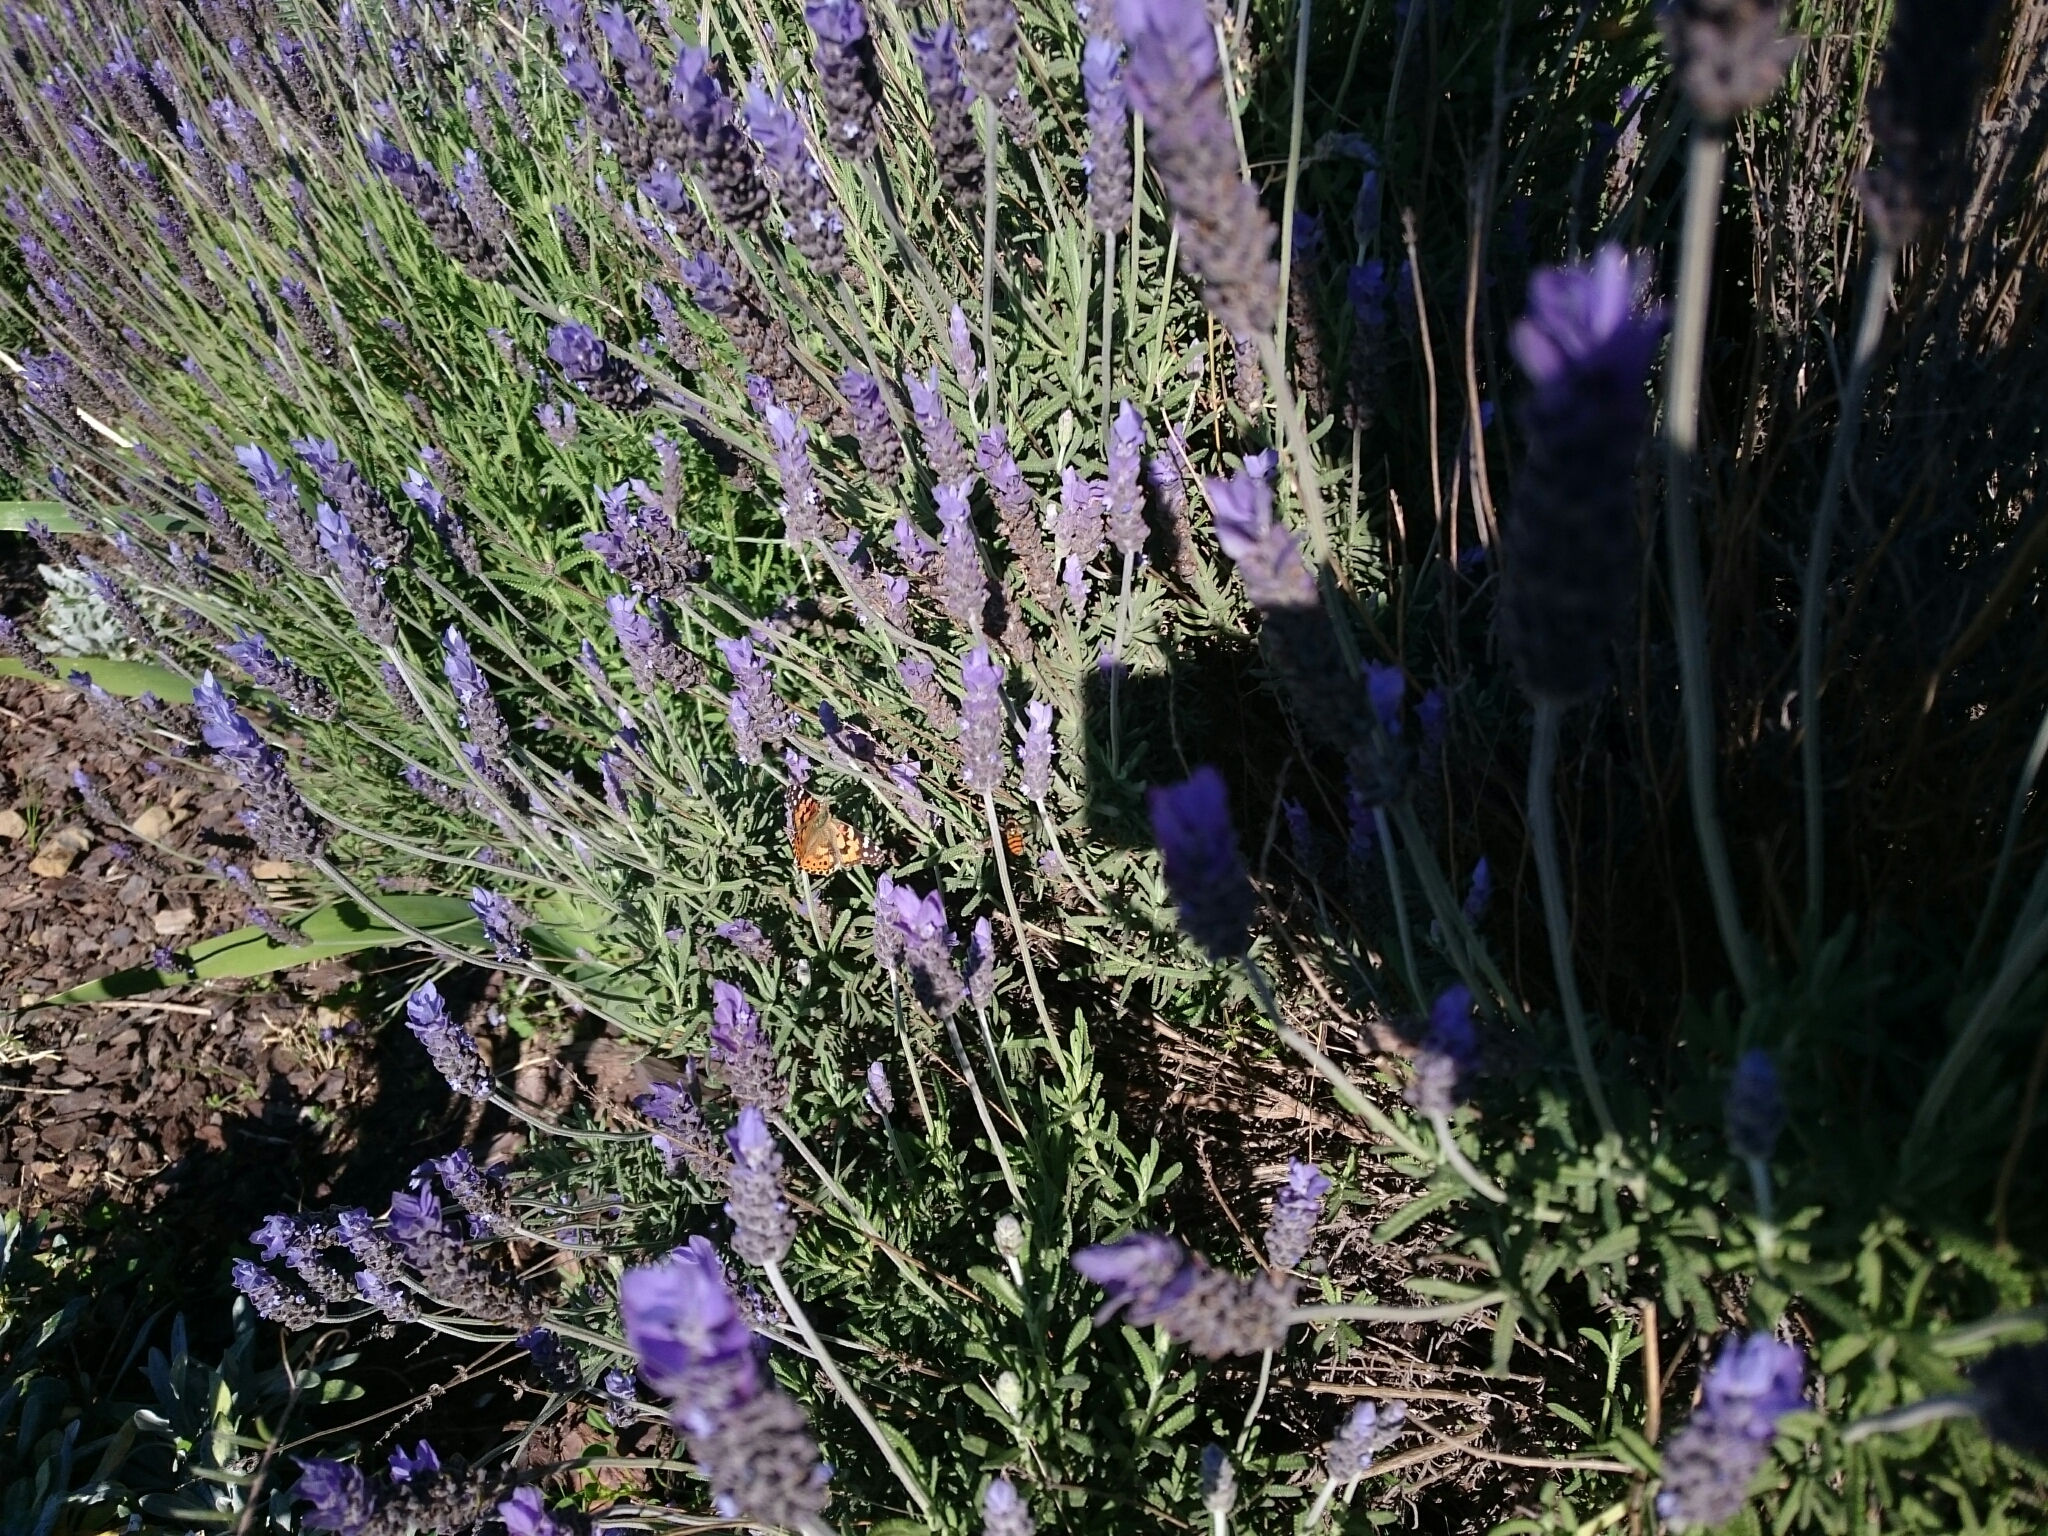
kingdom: Animalia
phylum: Arthropoda
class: Insecta
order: Lepidoptera
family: Nymphalidae
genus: Vanessa
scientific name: Vanessa cardui
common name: Painted lady
